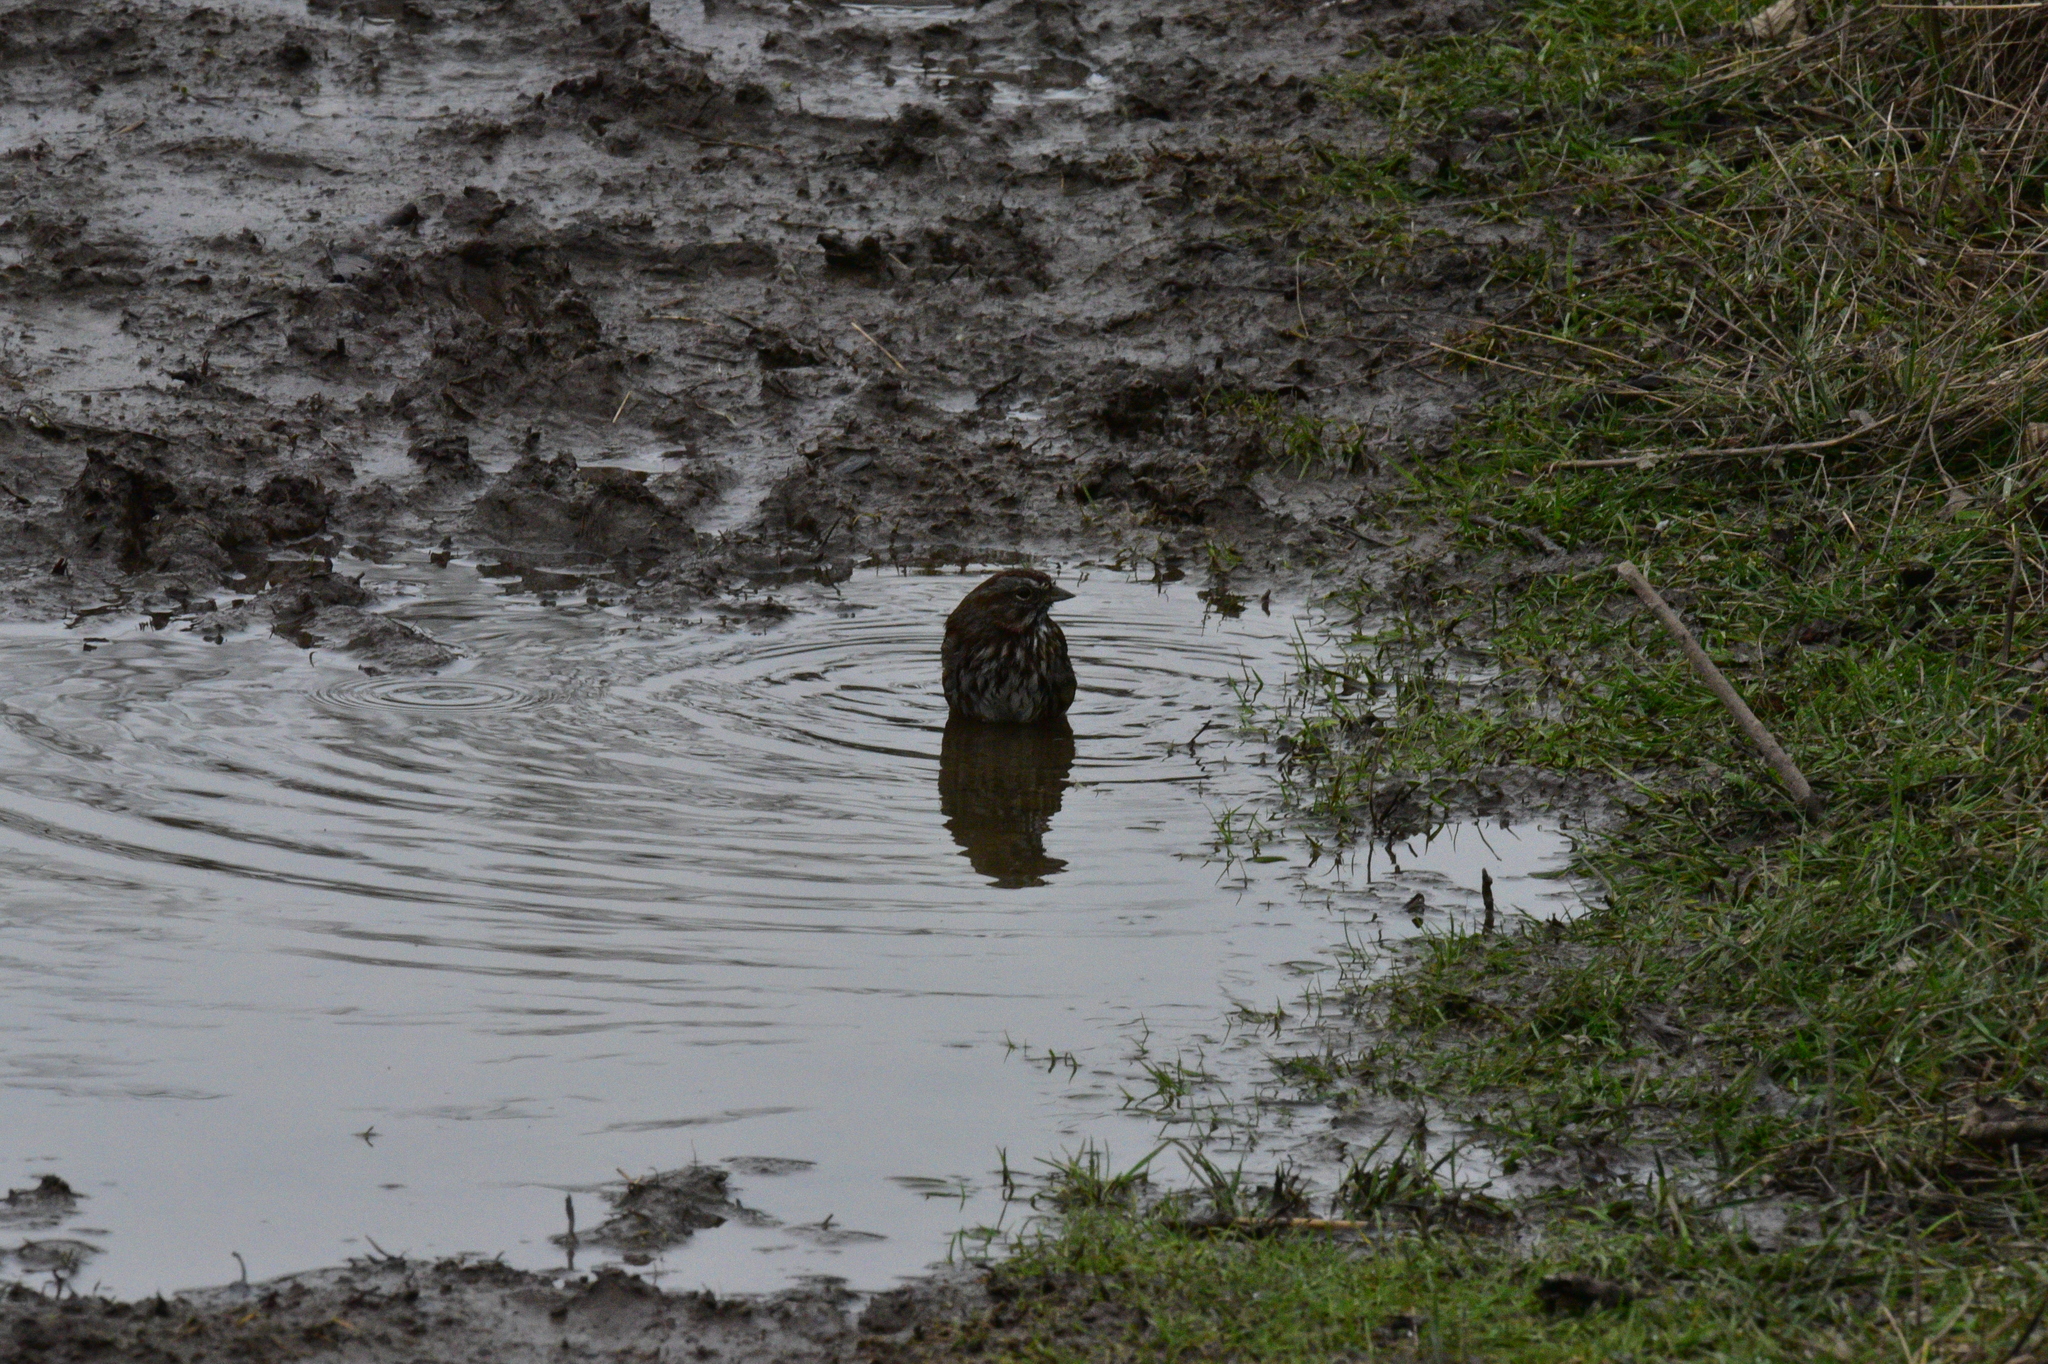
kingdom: Animalia
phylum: Chordata
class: Aves
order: Passeriformes
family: Passerellidae
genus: Melospiza
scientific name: Melospiza melodia
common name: Song sparrow
